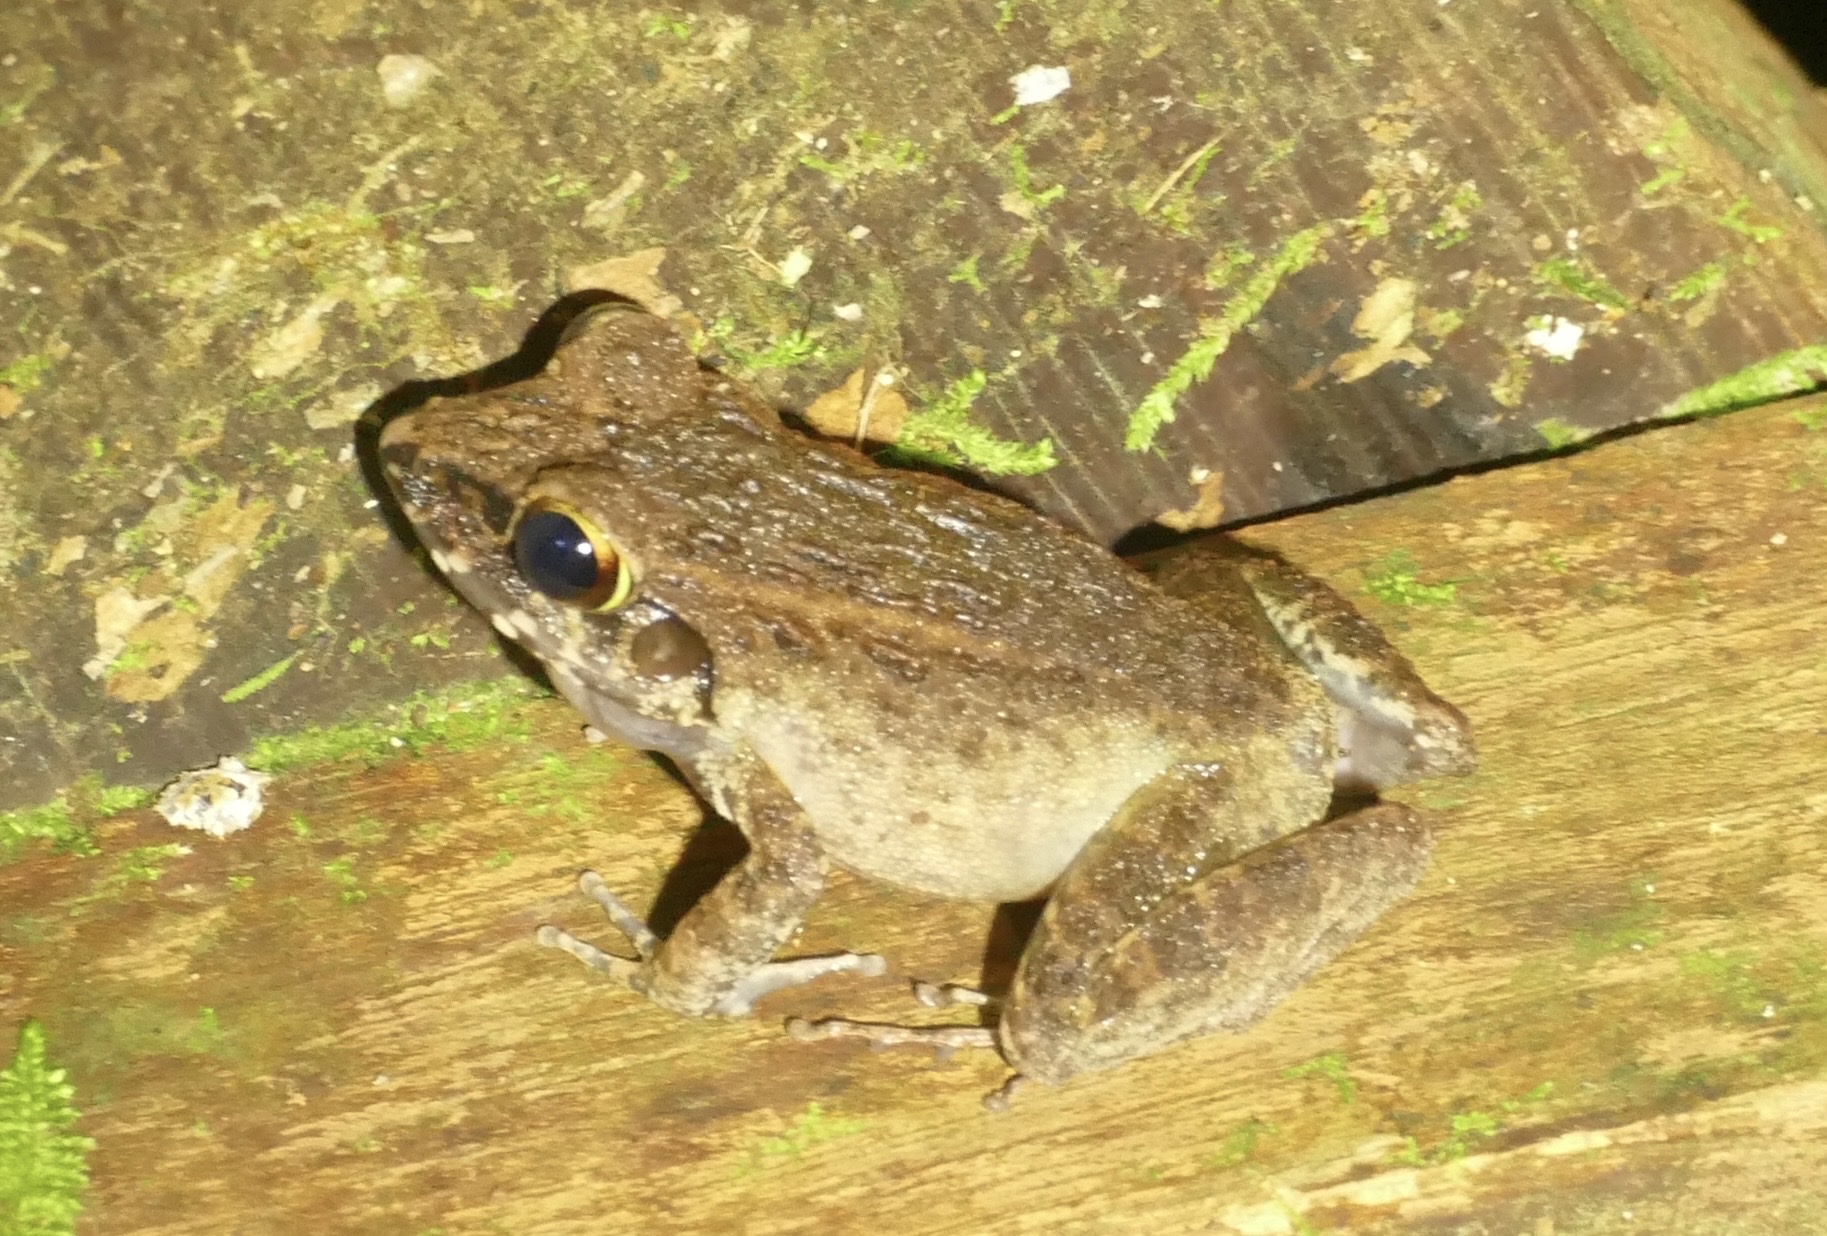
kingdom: Animalia
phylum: Chordata
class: Amphibia
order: Anura
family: Ceratobatrachidae
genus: Cornufer
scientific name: Cornufer papuensis
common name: Papua wrinkled ground frog
